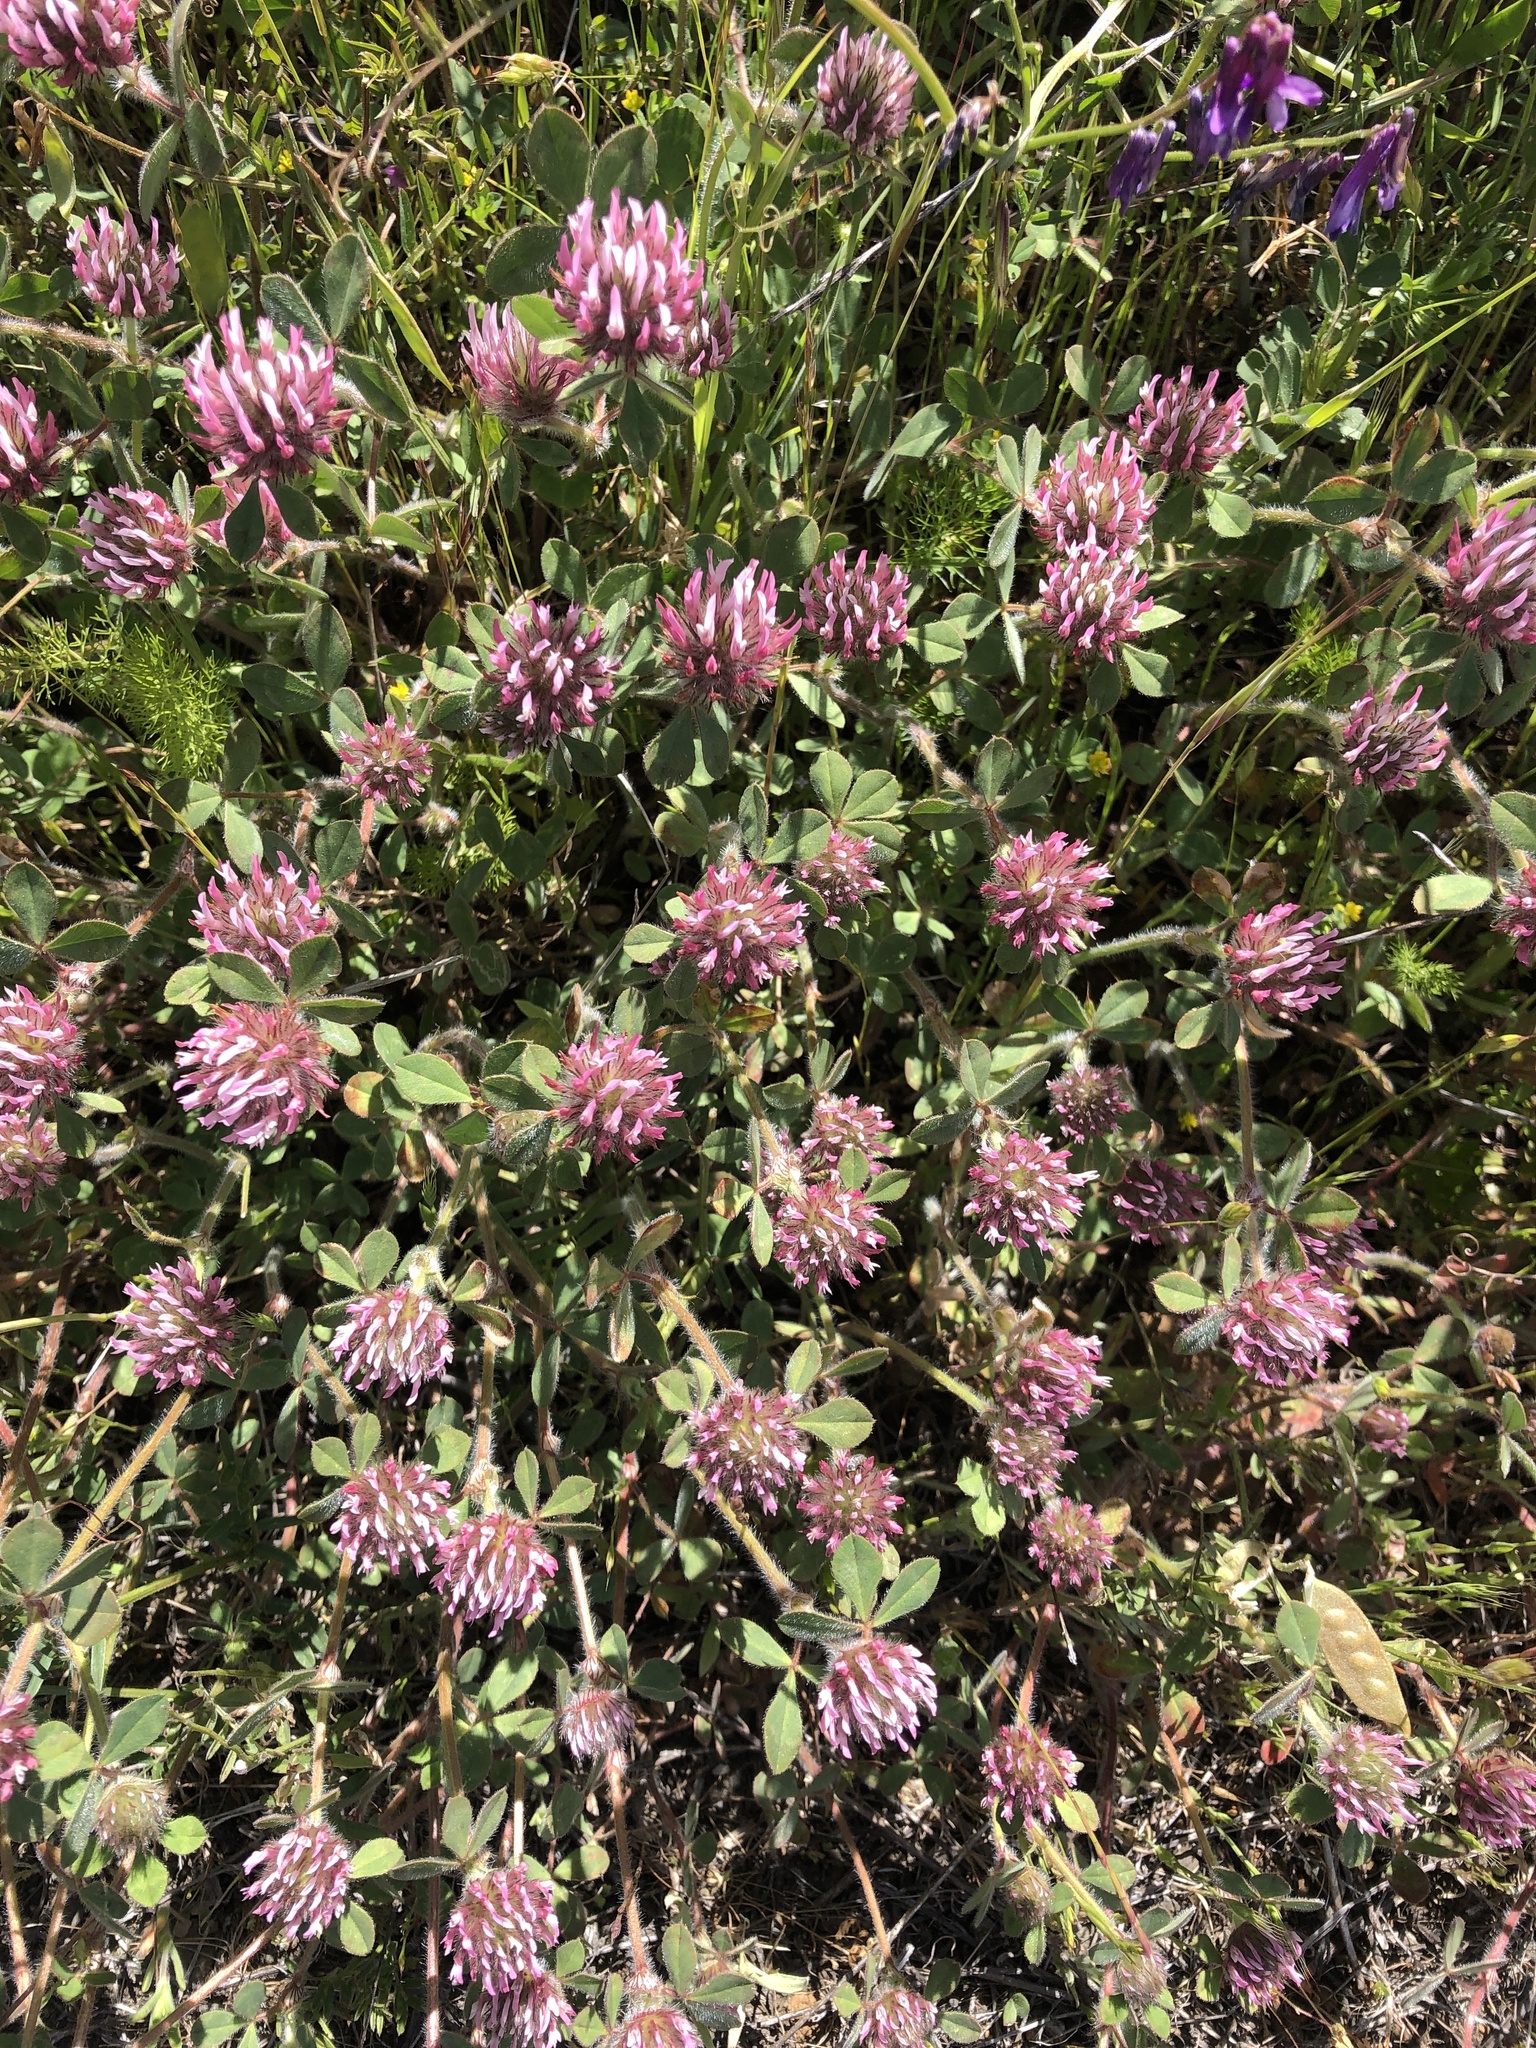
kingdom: Plantae
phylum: Tracheophyta
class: Magnoliopsida
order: Fabales
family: Fabaceae
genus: Trifolium
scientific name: Trifolium hirtum
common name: Rose clover
